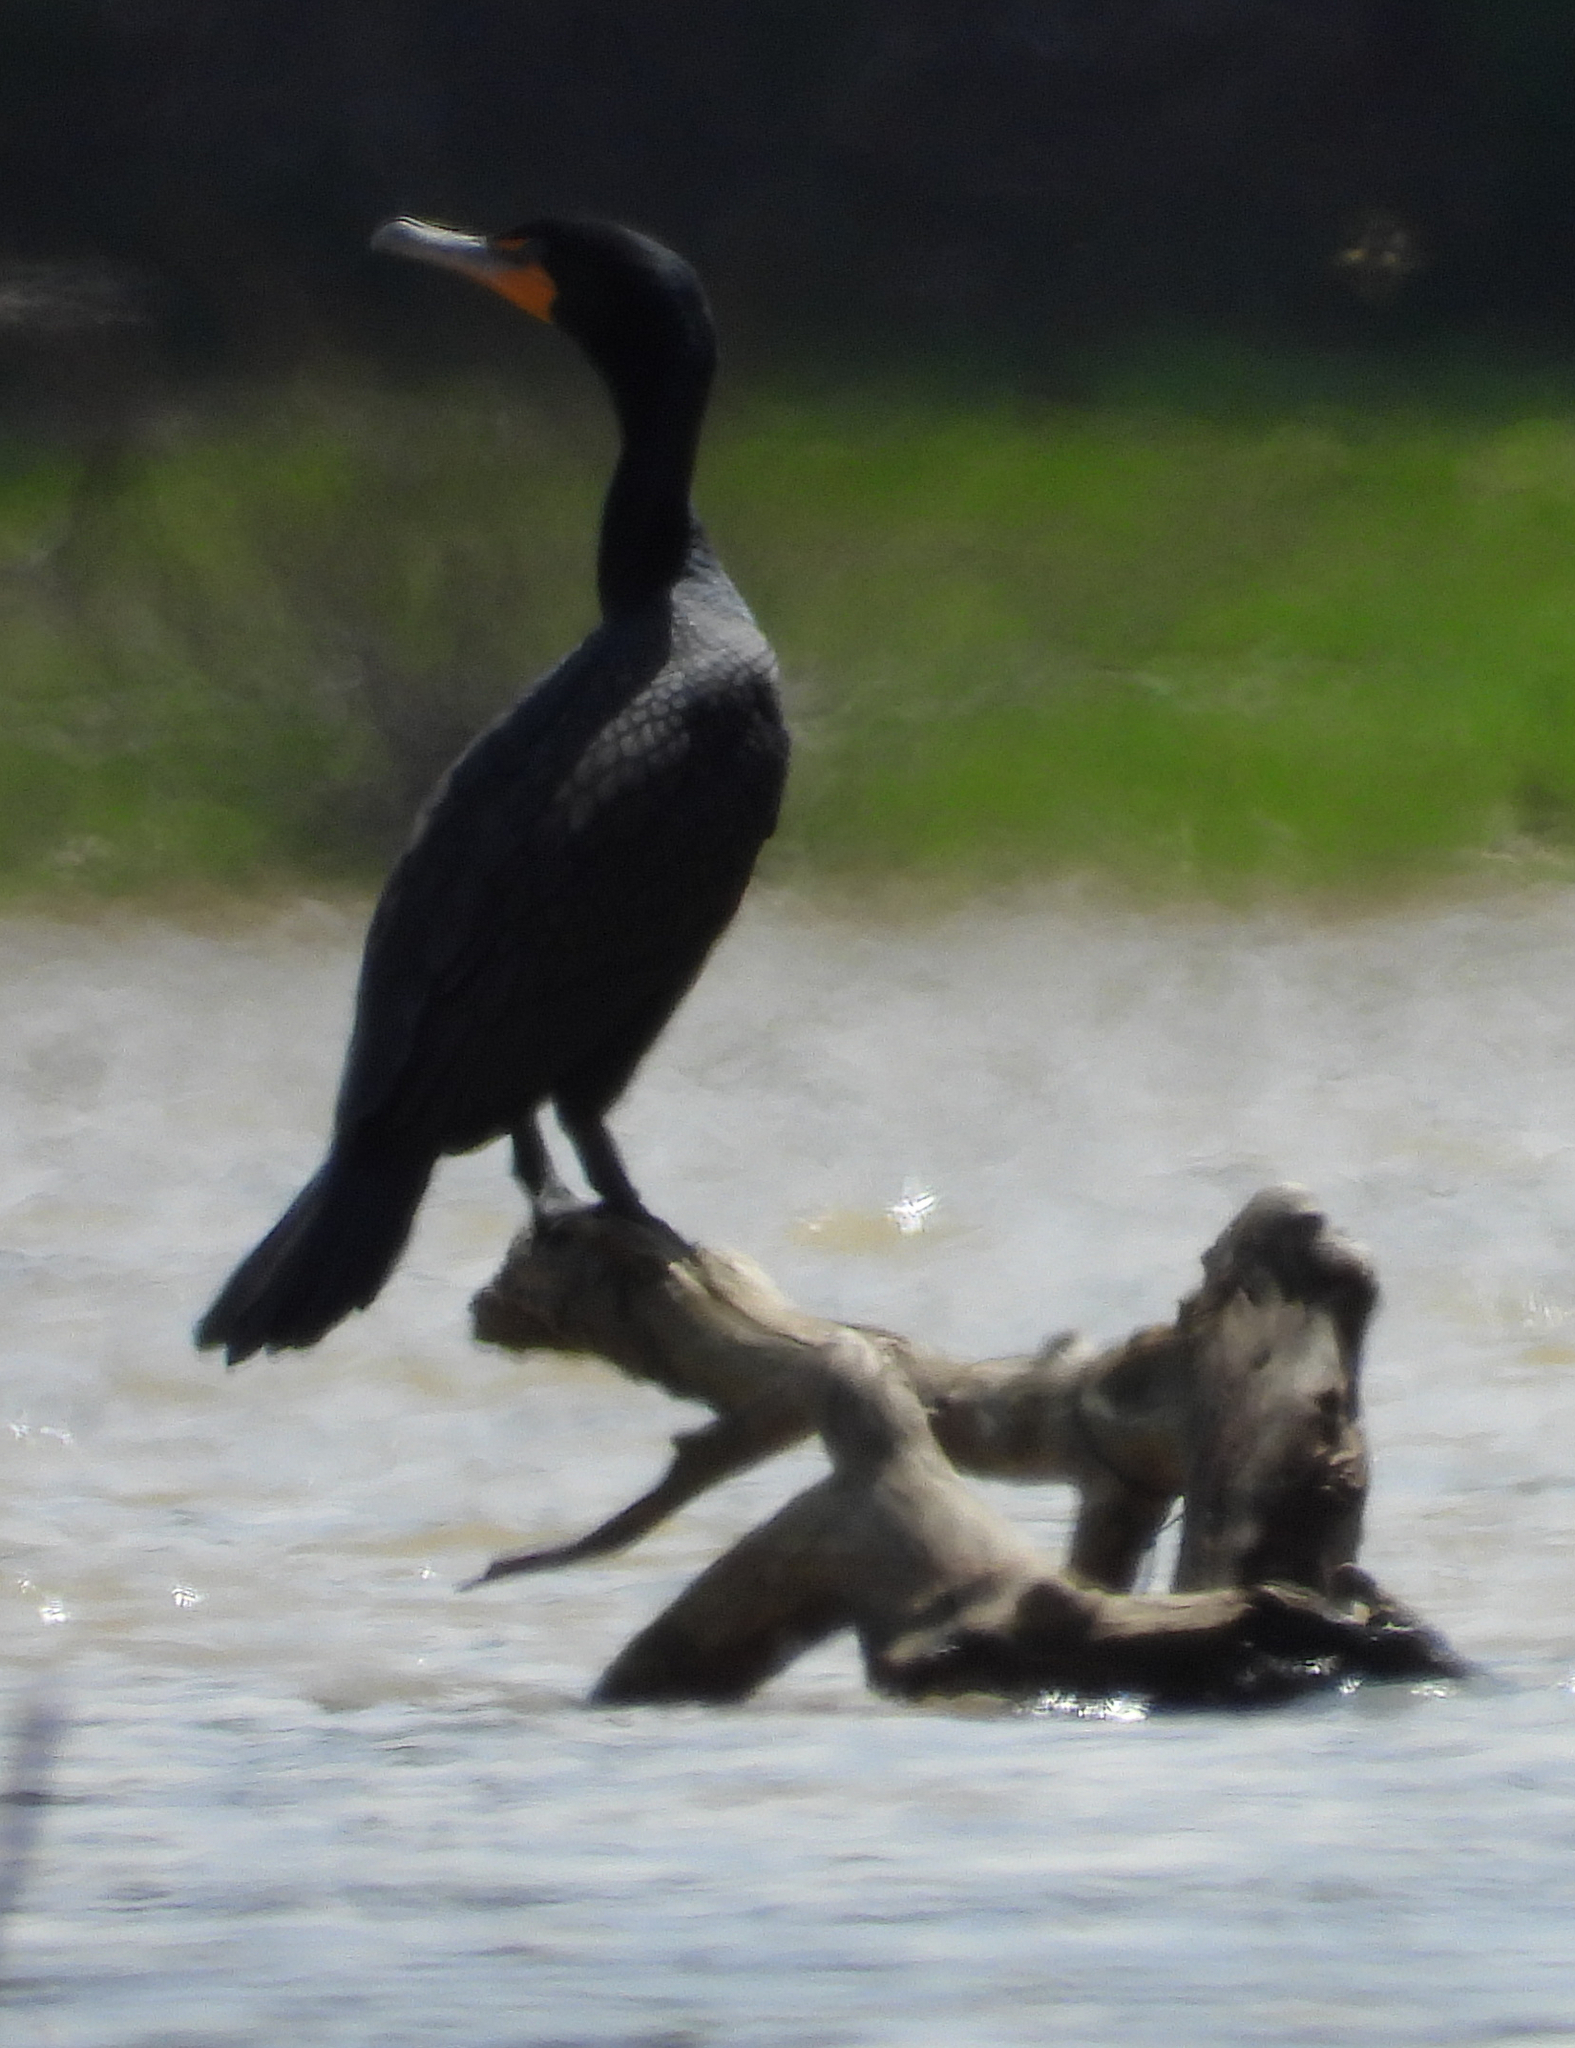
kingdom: Animalia
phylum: Chordata
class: Aves
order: Suliformes
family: Phalacrocoracidae
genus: Phalacrocorax
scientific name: Phalacrocorax auritus
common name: Double-crested cormorant
